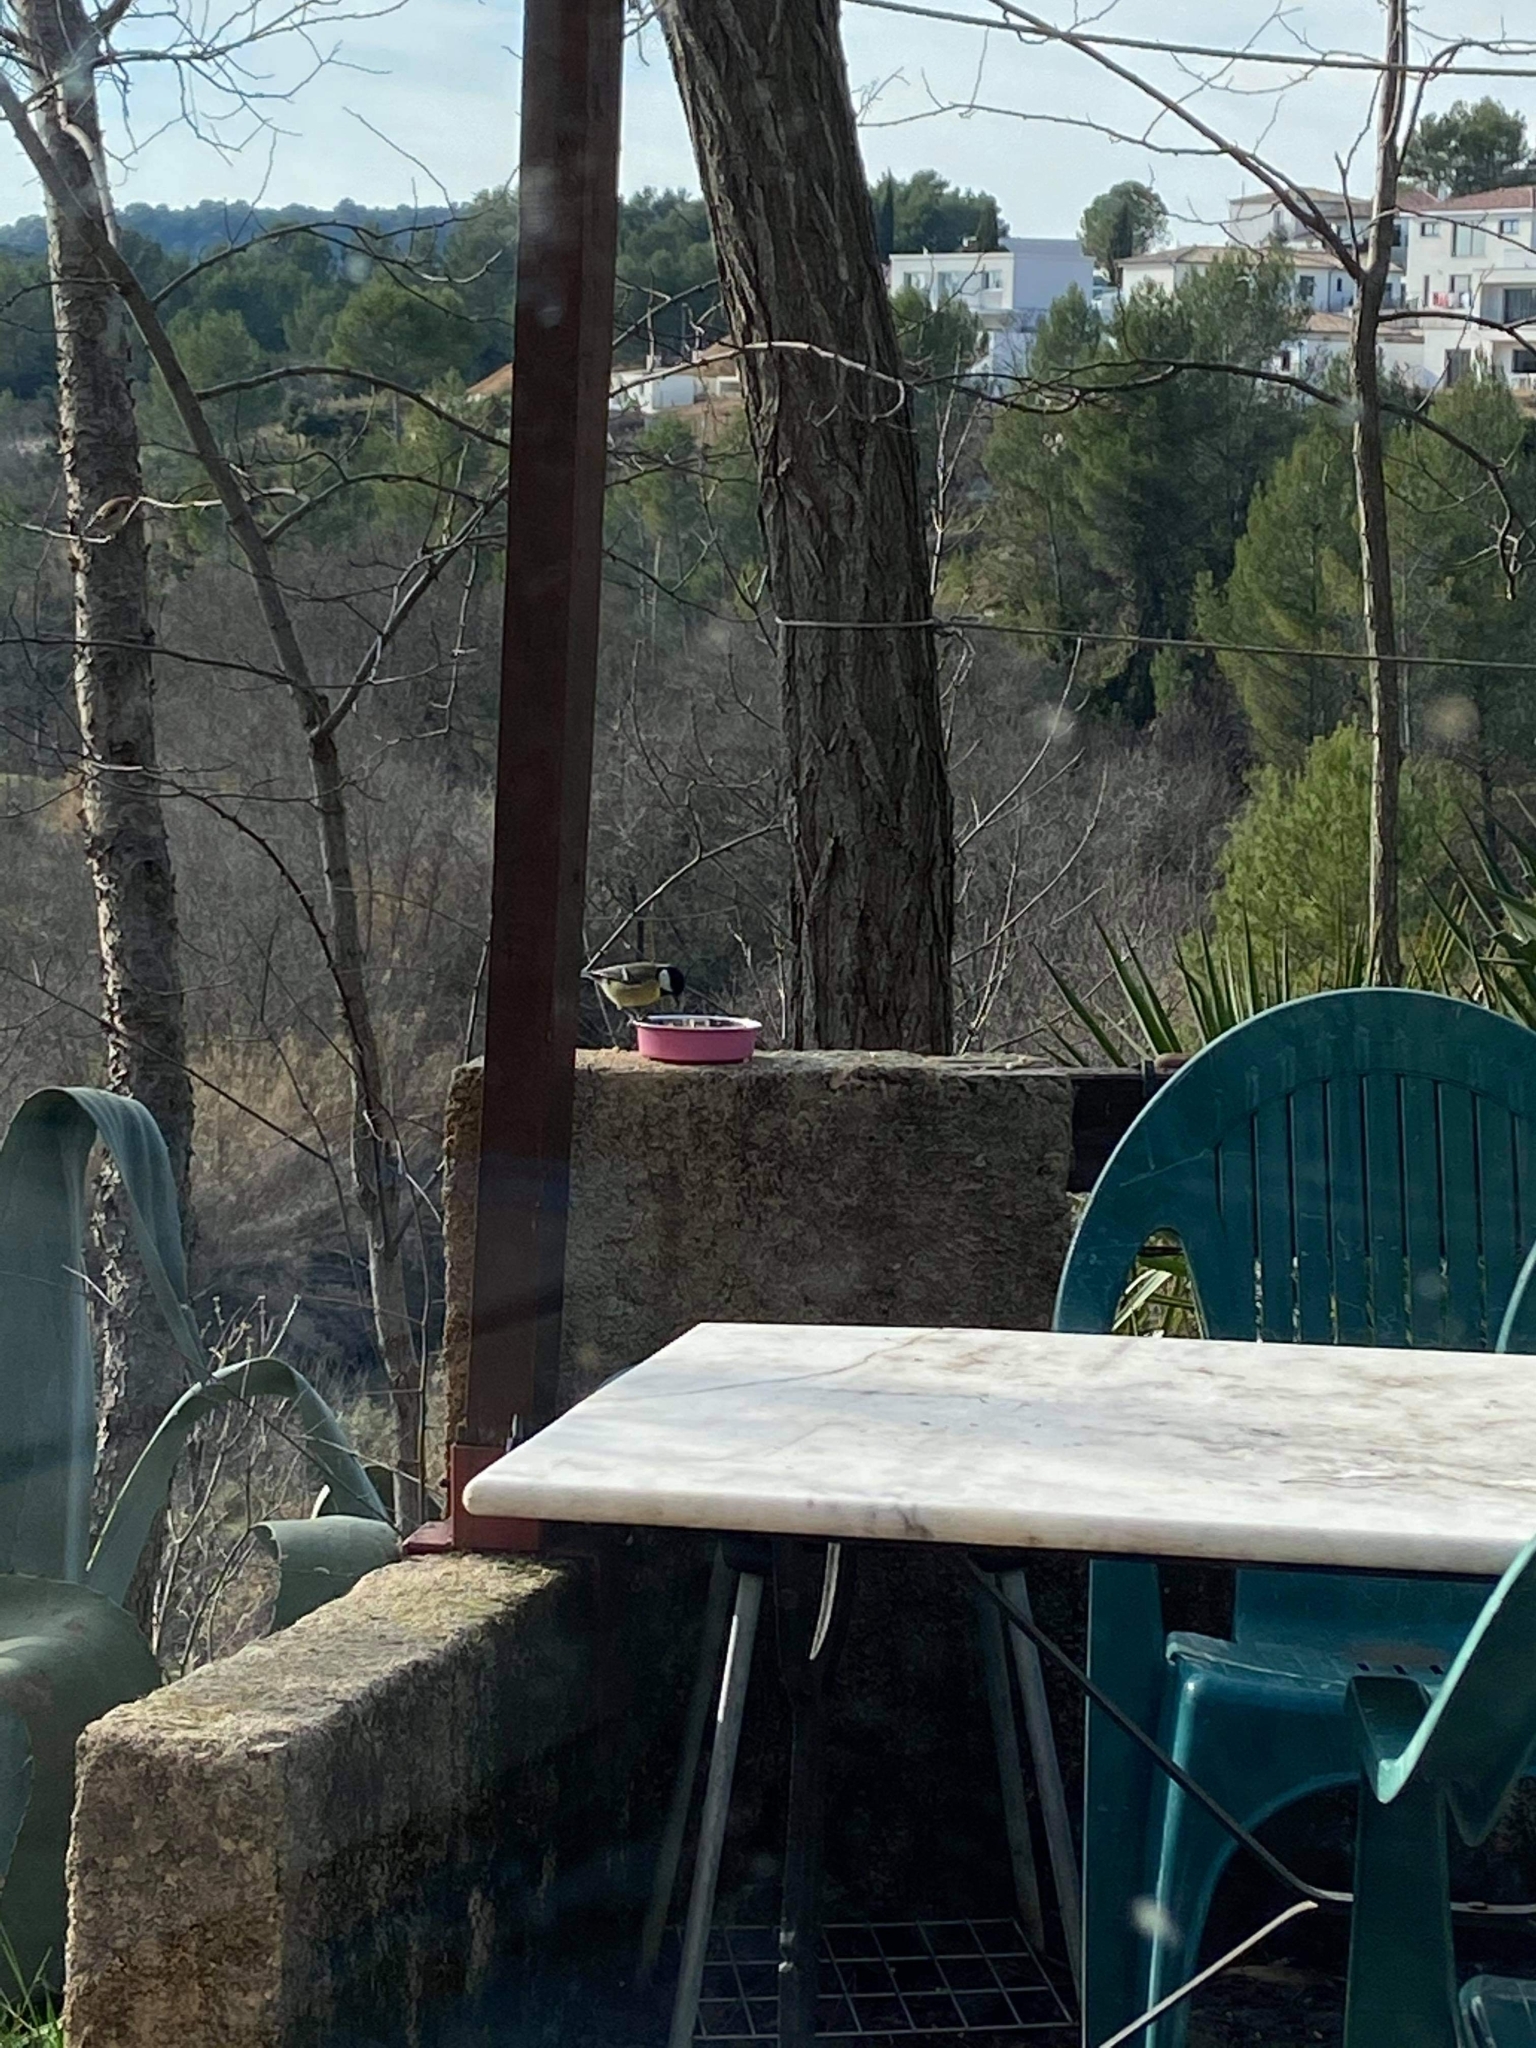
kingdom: Animalia
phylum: Chordata
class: Aves
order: Passeriformes
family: Paridae
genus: Parus
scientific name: Parus major
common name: Great tit
